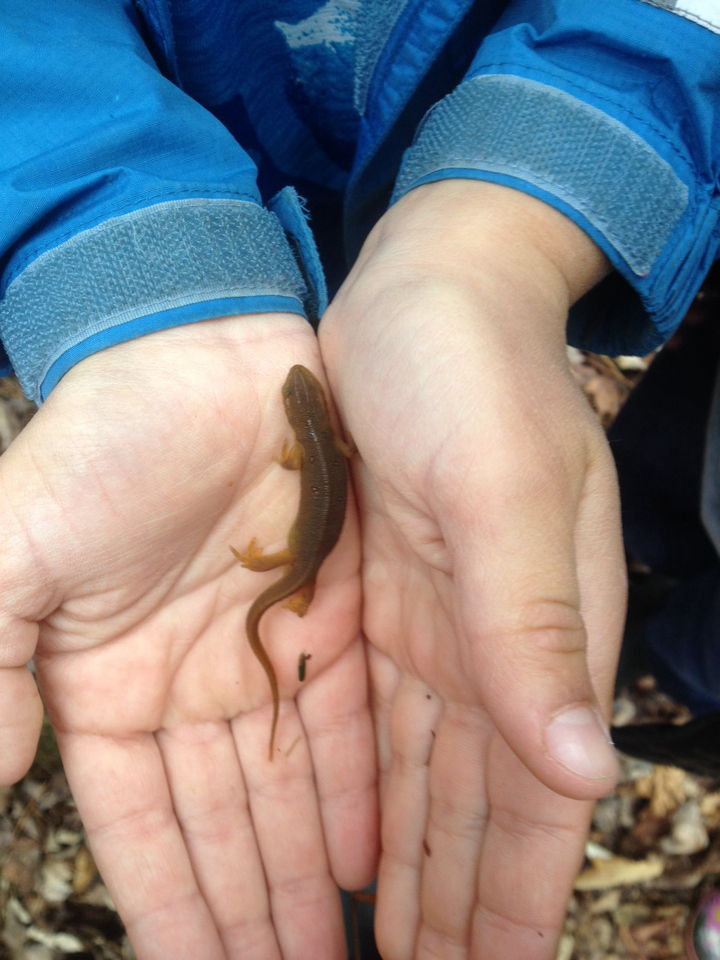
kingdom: Animalia
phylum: Chordata
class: Amphibia
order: Caudata
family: Salamandridae
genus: Notophthalmus
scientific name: Notophthalmus viridescens
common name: Eastern newt
